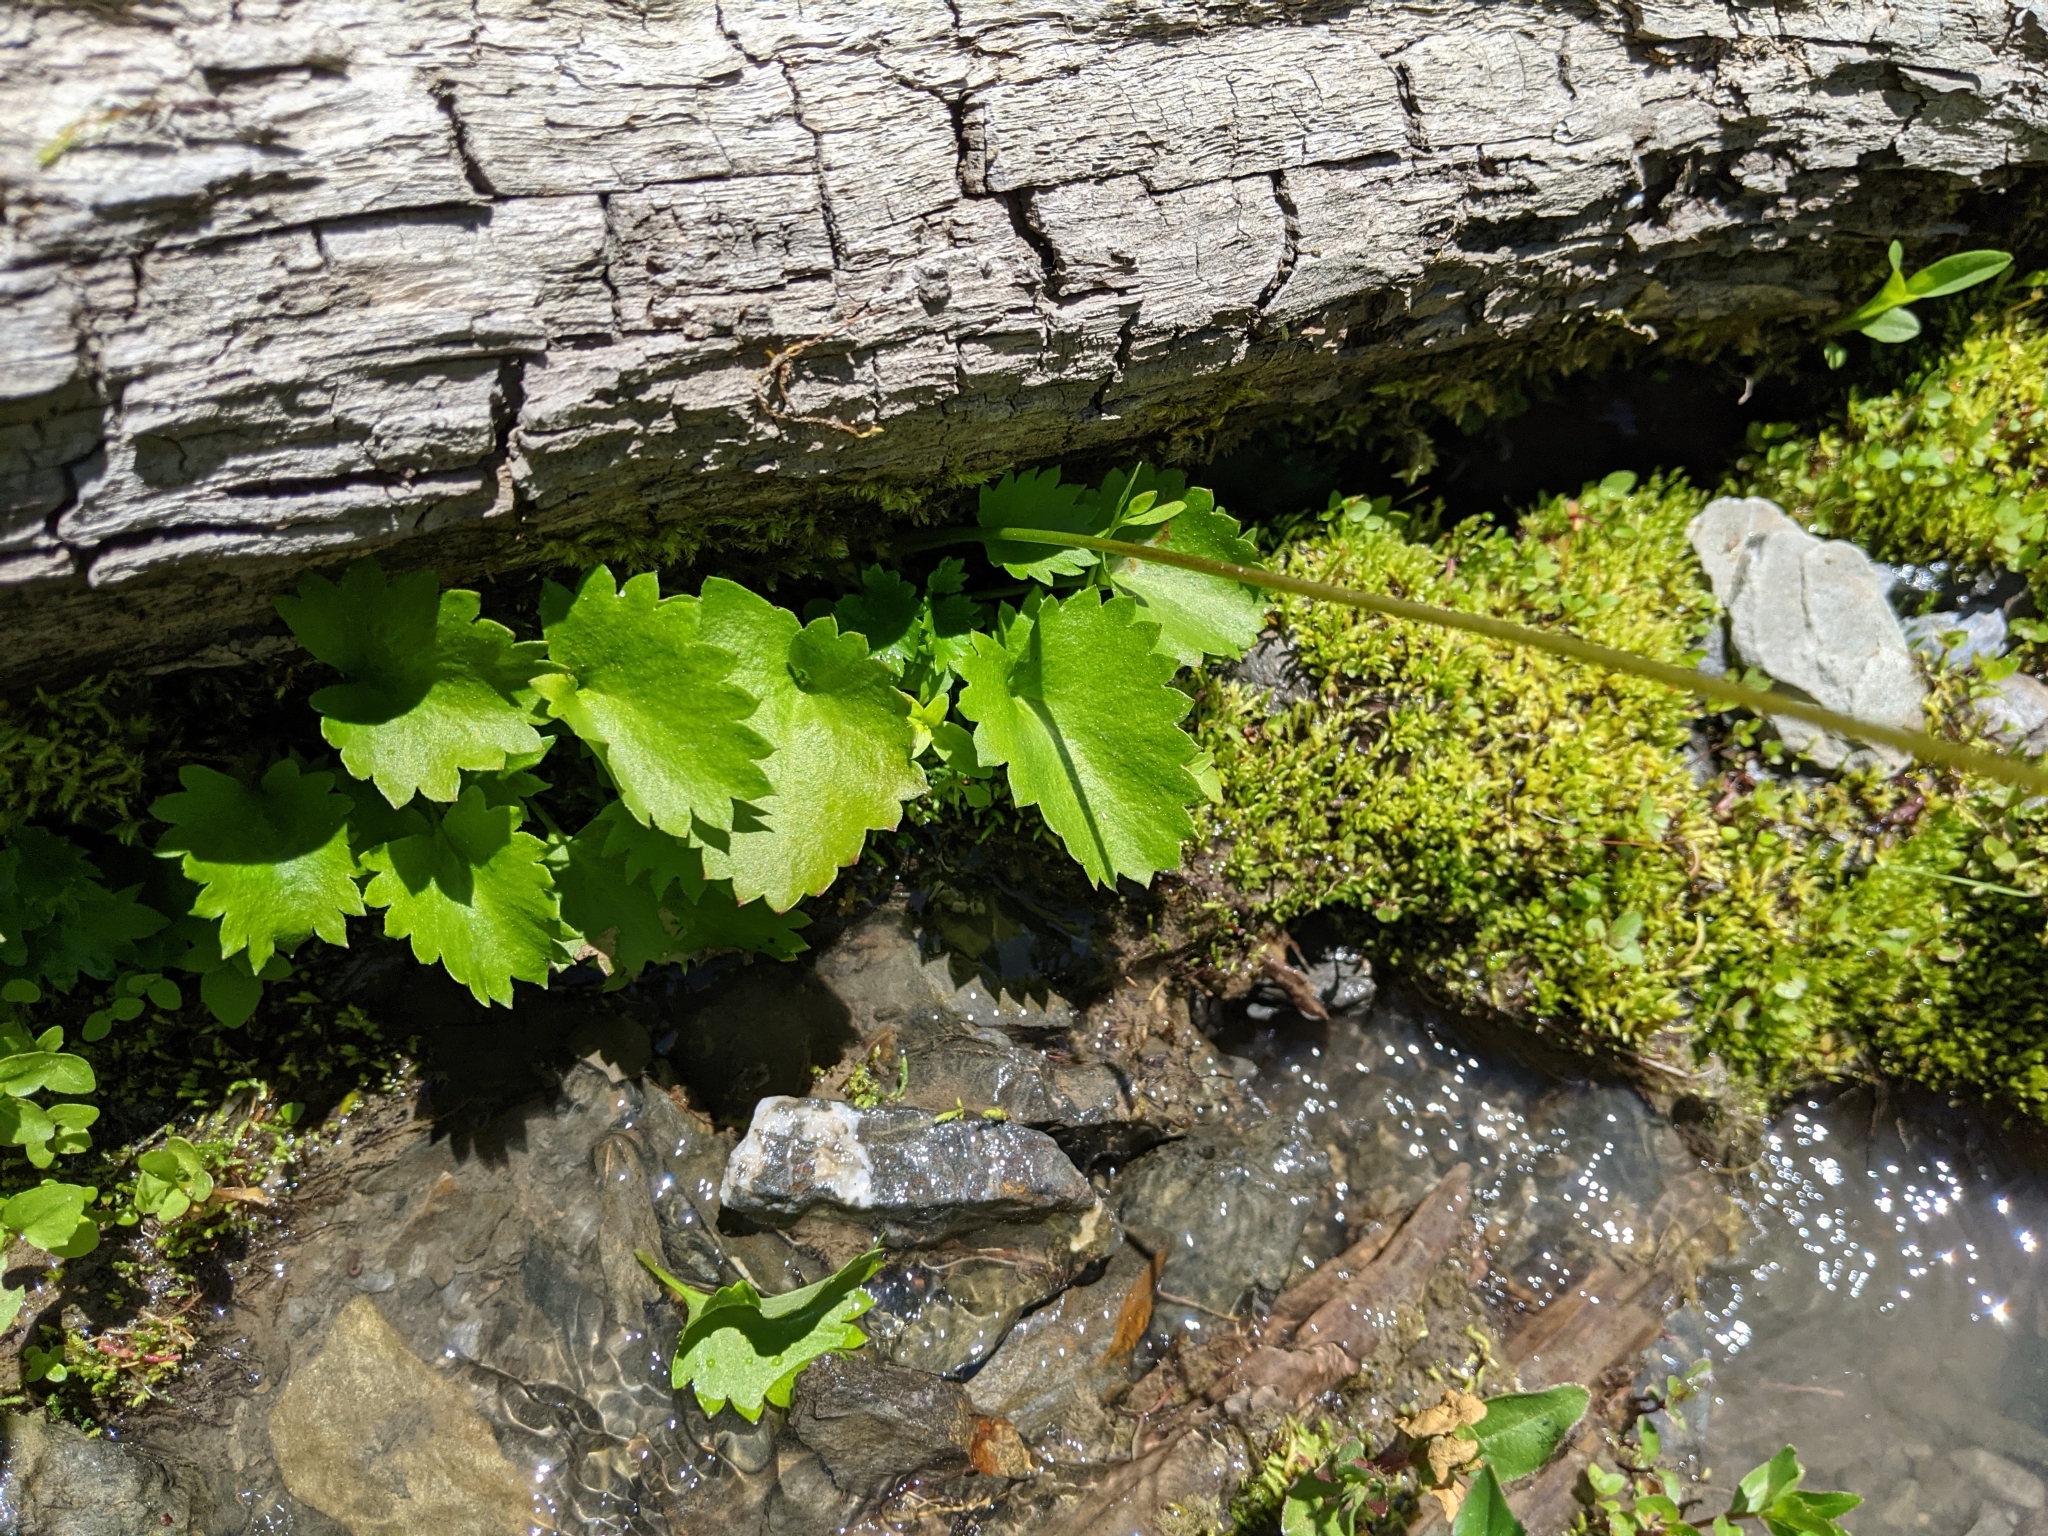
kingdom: Plantae
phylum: Tracheophyta
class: Magnoliopsida
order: Saxifragales
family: Saxifragaceae
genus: Micranthes
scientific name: Micranthes odontoloma
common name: Brook saxifrage
